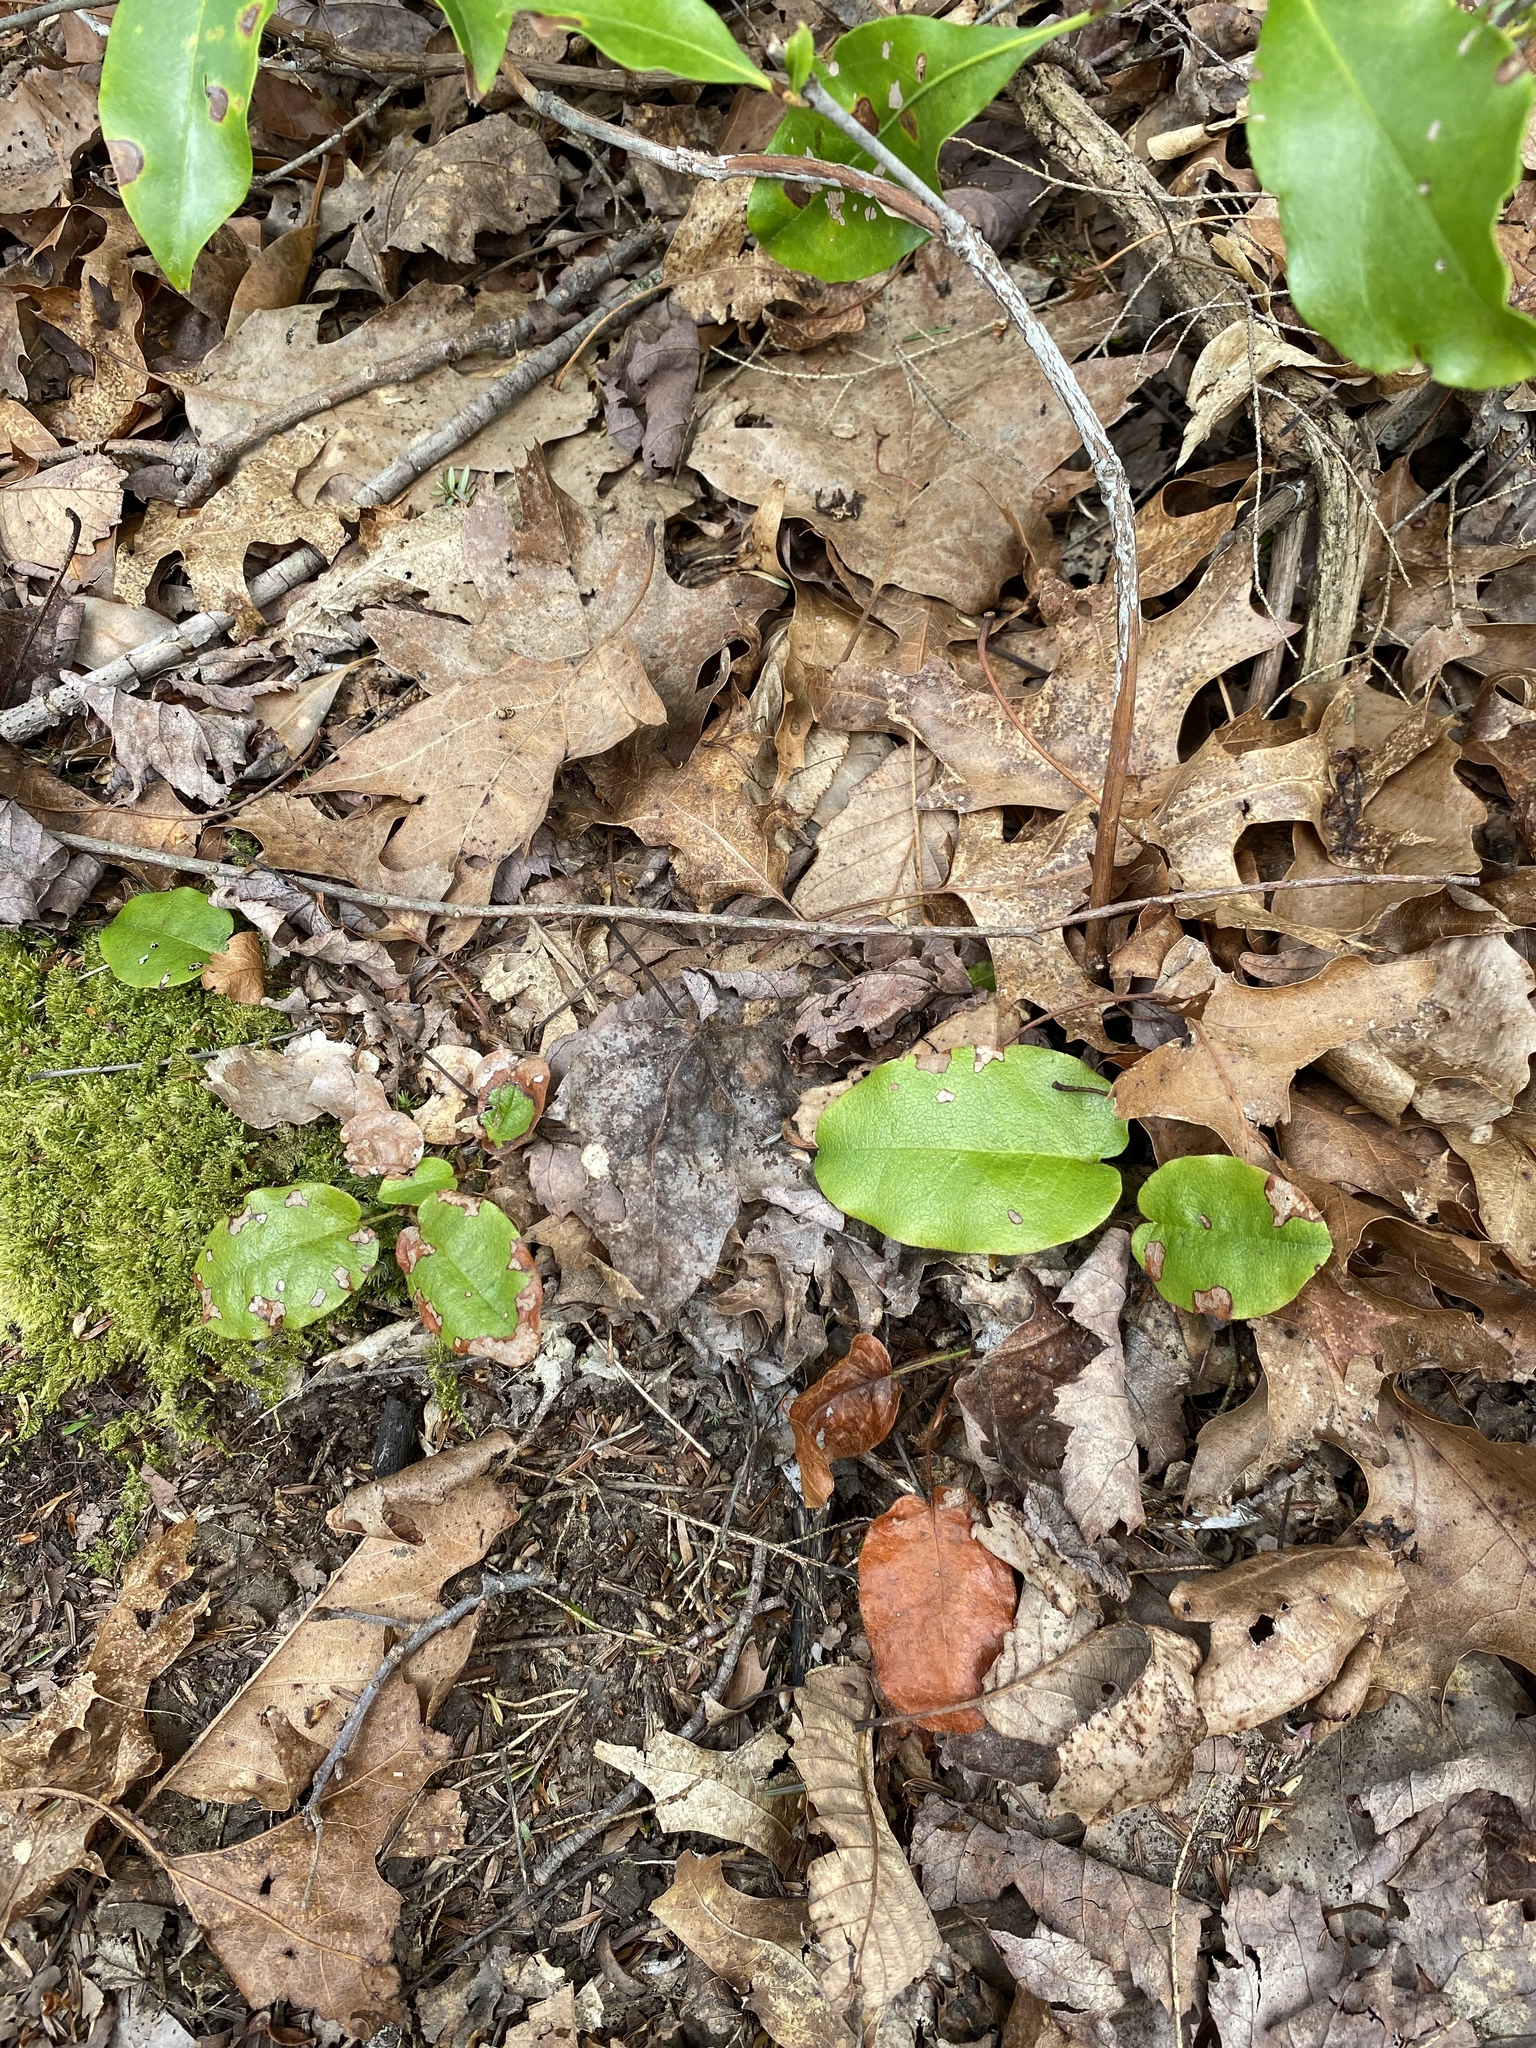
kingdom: Plantae
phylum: Tracheophyta
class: Magnoliopsida
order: Ericales
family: Ericaceae
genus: Epigaea
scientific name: Epigaea repens
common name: Gravelroot
